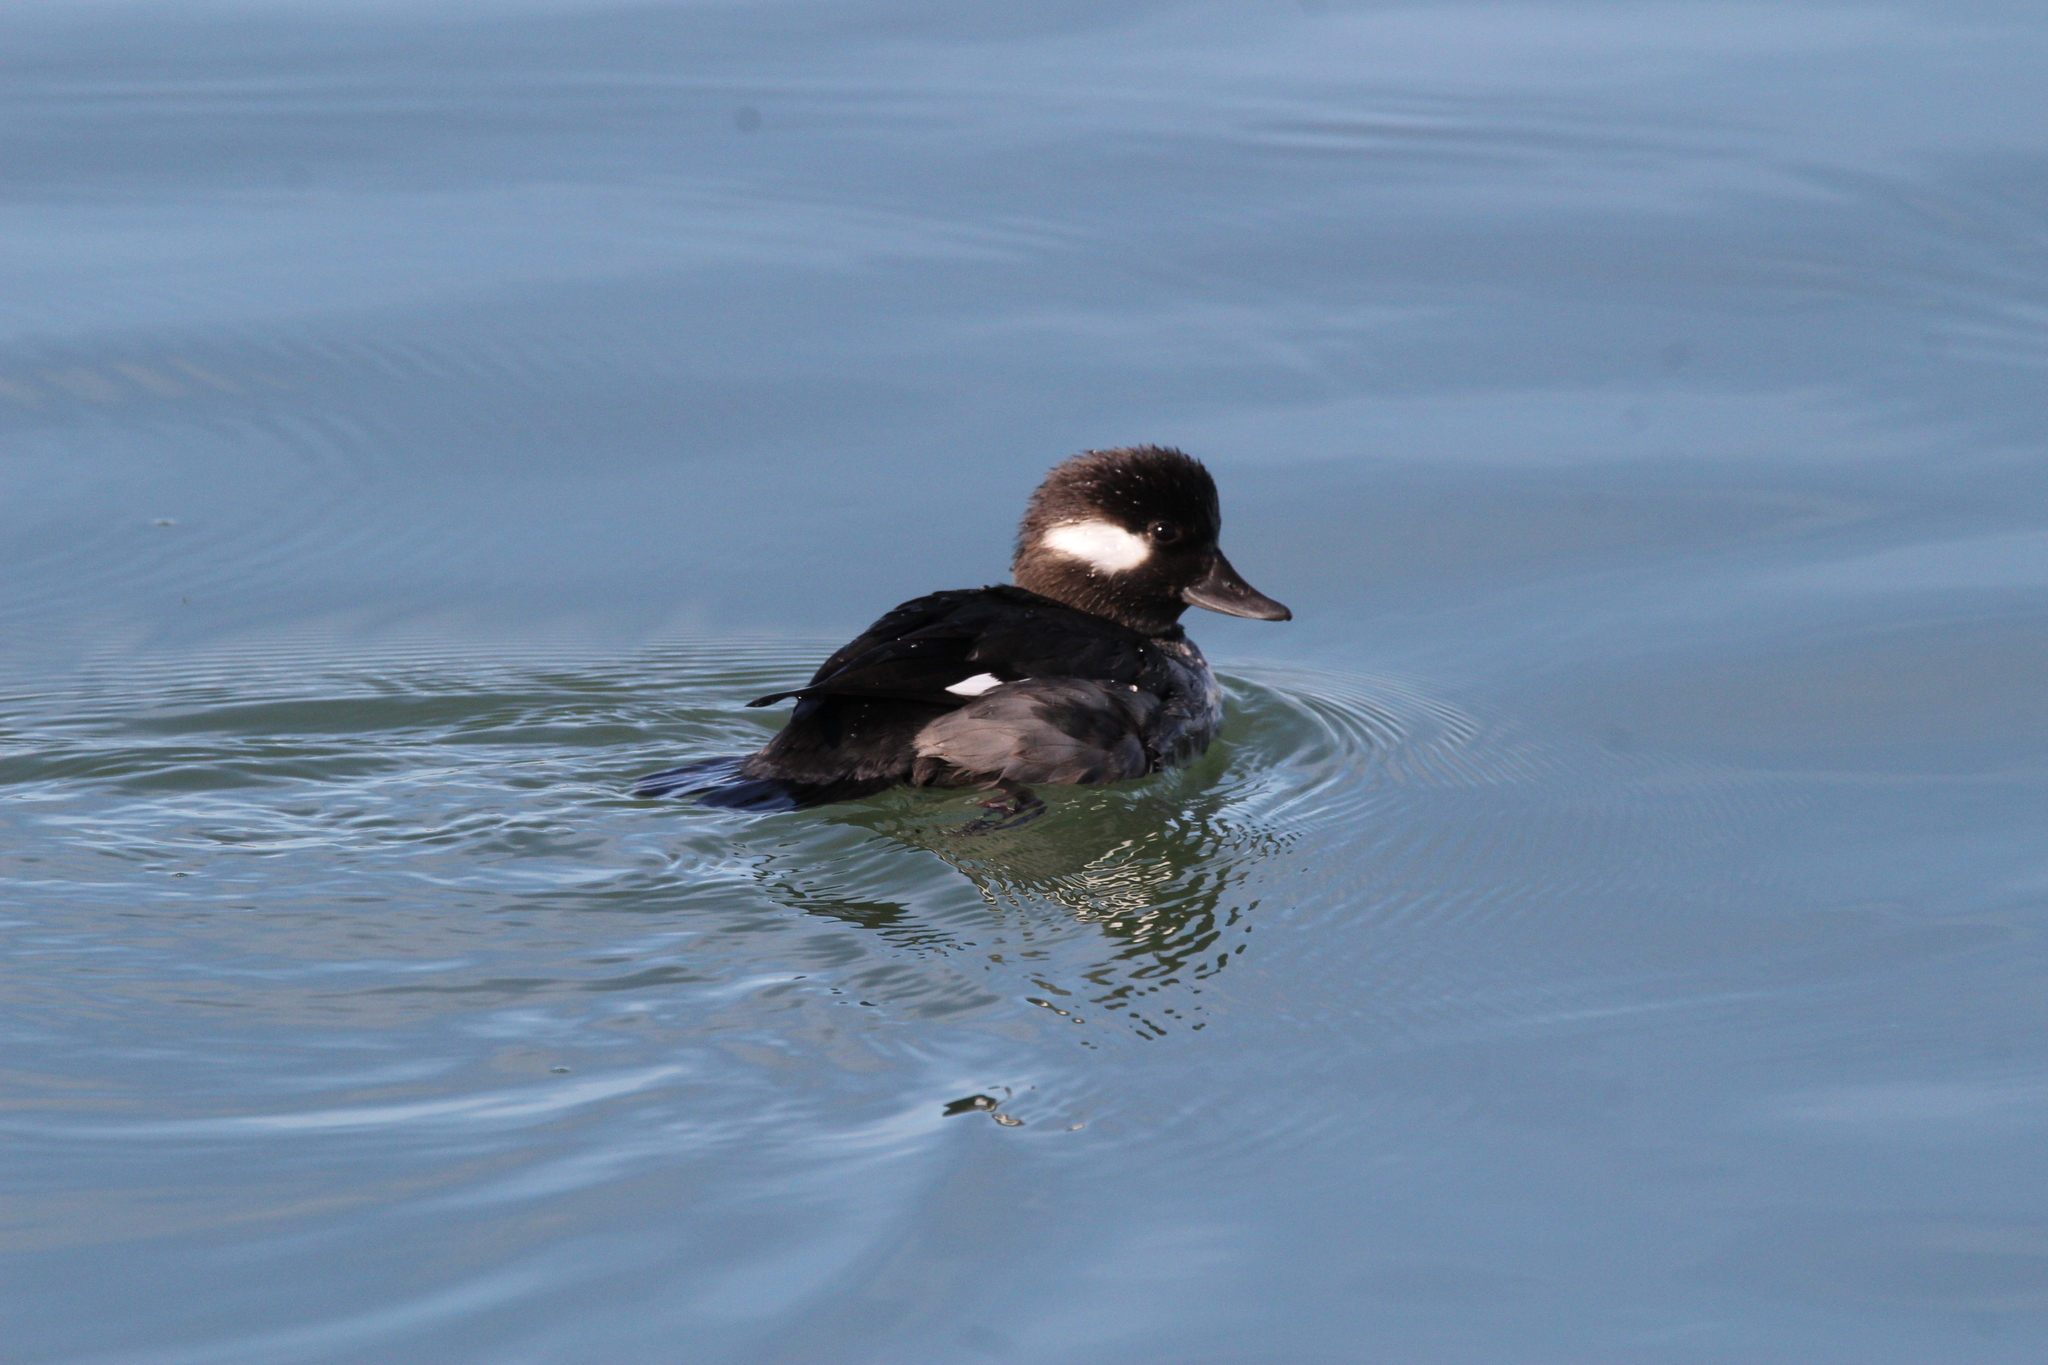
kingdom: Animalia
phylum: Chordata
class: Aves
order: Anseriformes
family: Anatidae
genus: Bucephala
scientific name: Bucephala albeola
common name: Bufflehead
